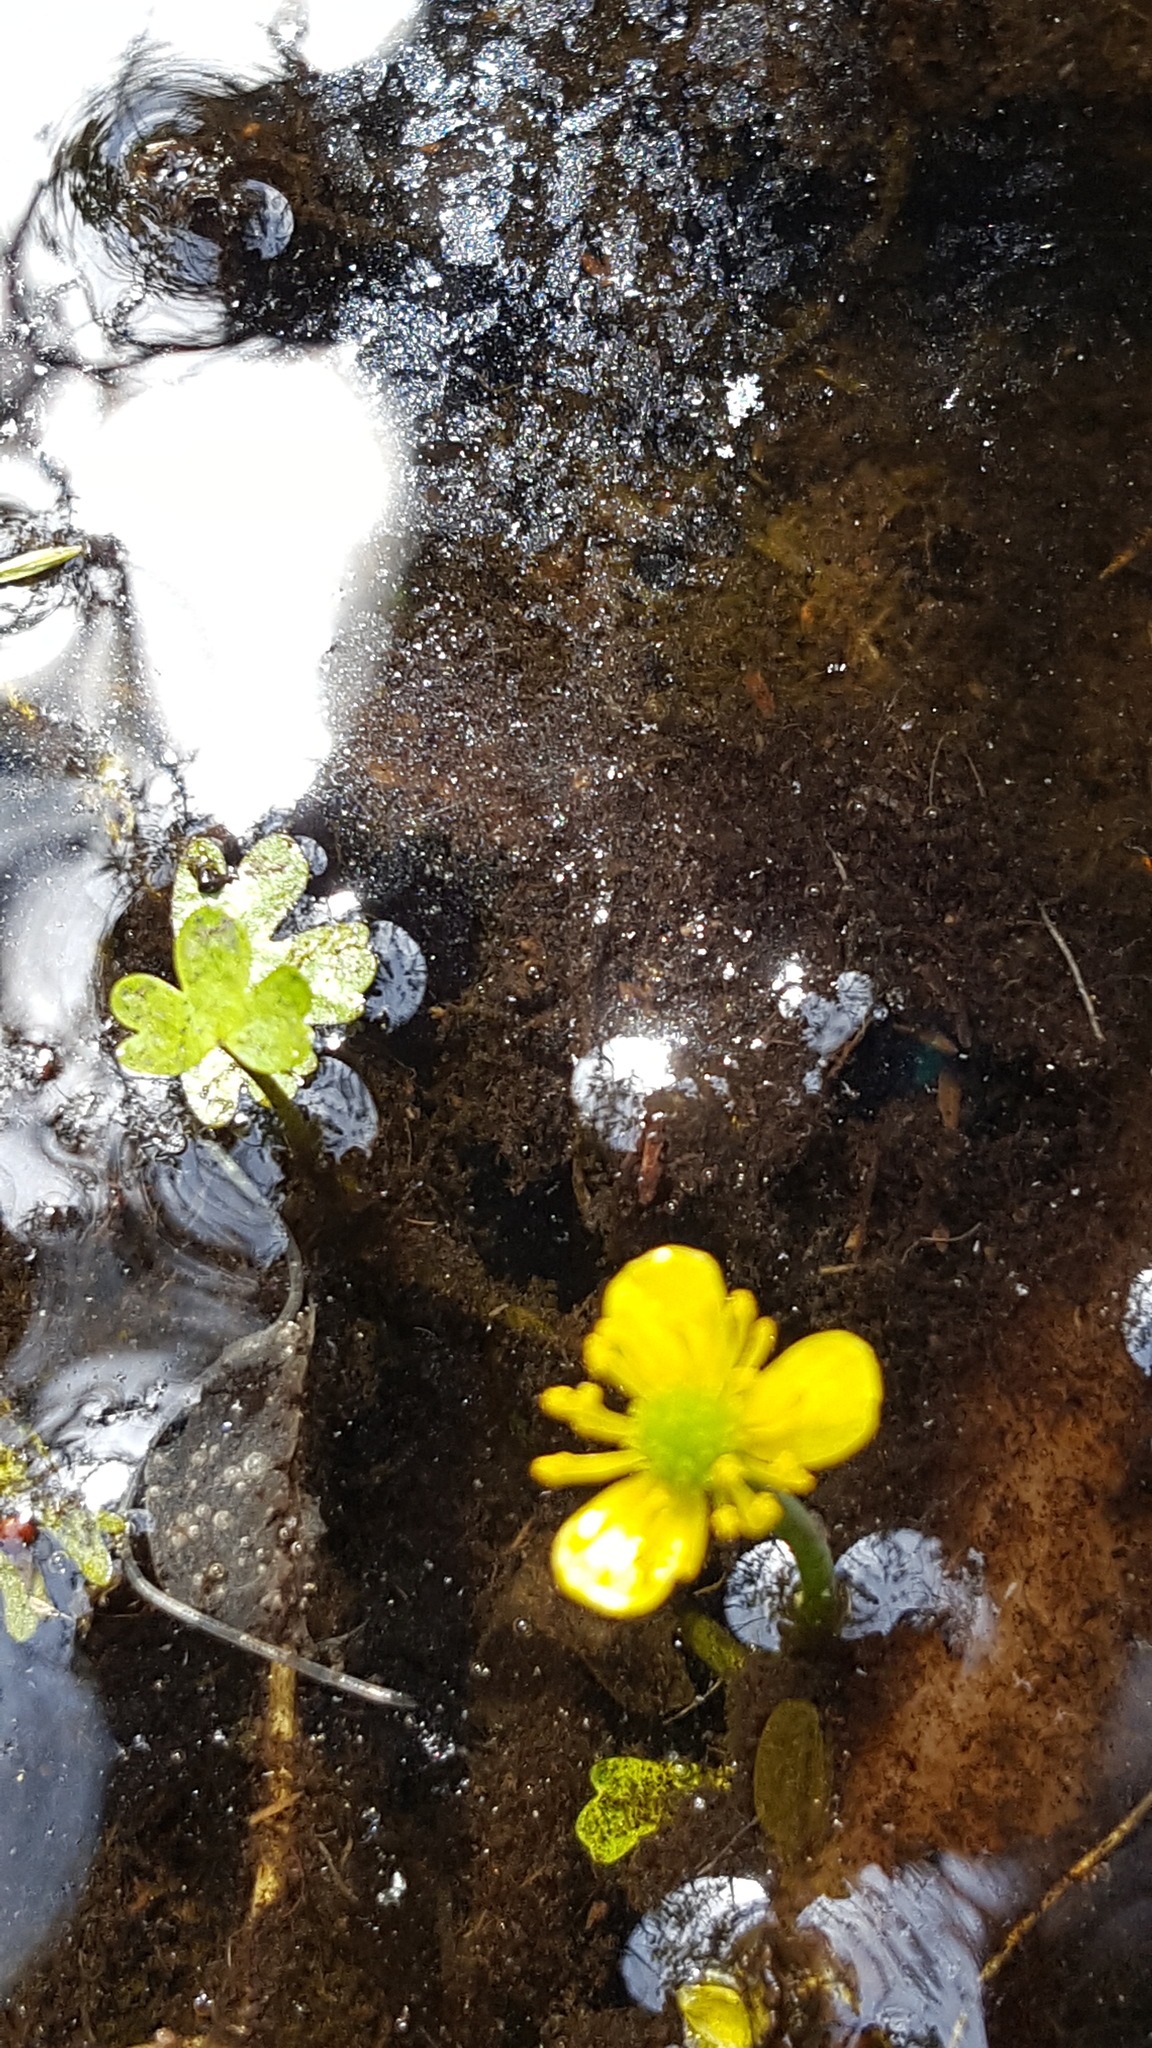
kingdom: Plantae
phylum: Tracheophyta
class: Magnoliopsida
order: Ranunculales
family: Ranunculaceae
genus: Ranunculus
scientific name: Ranunculus gmelinii
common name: Gmelin's buttercup
